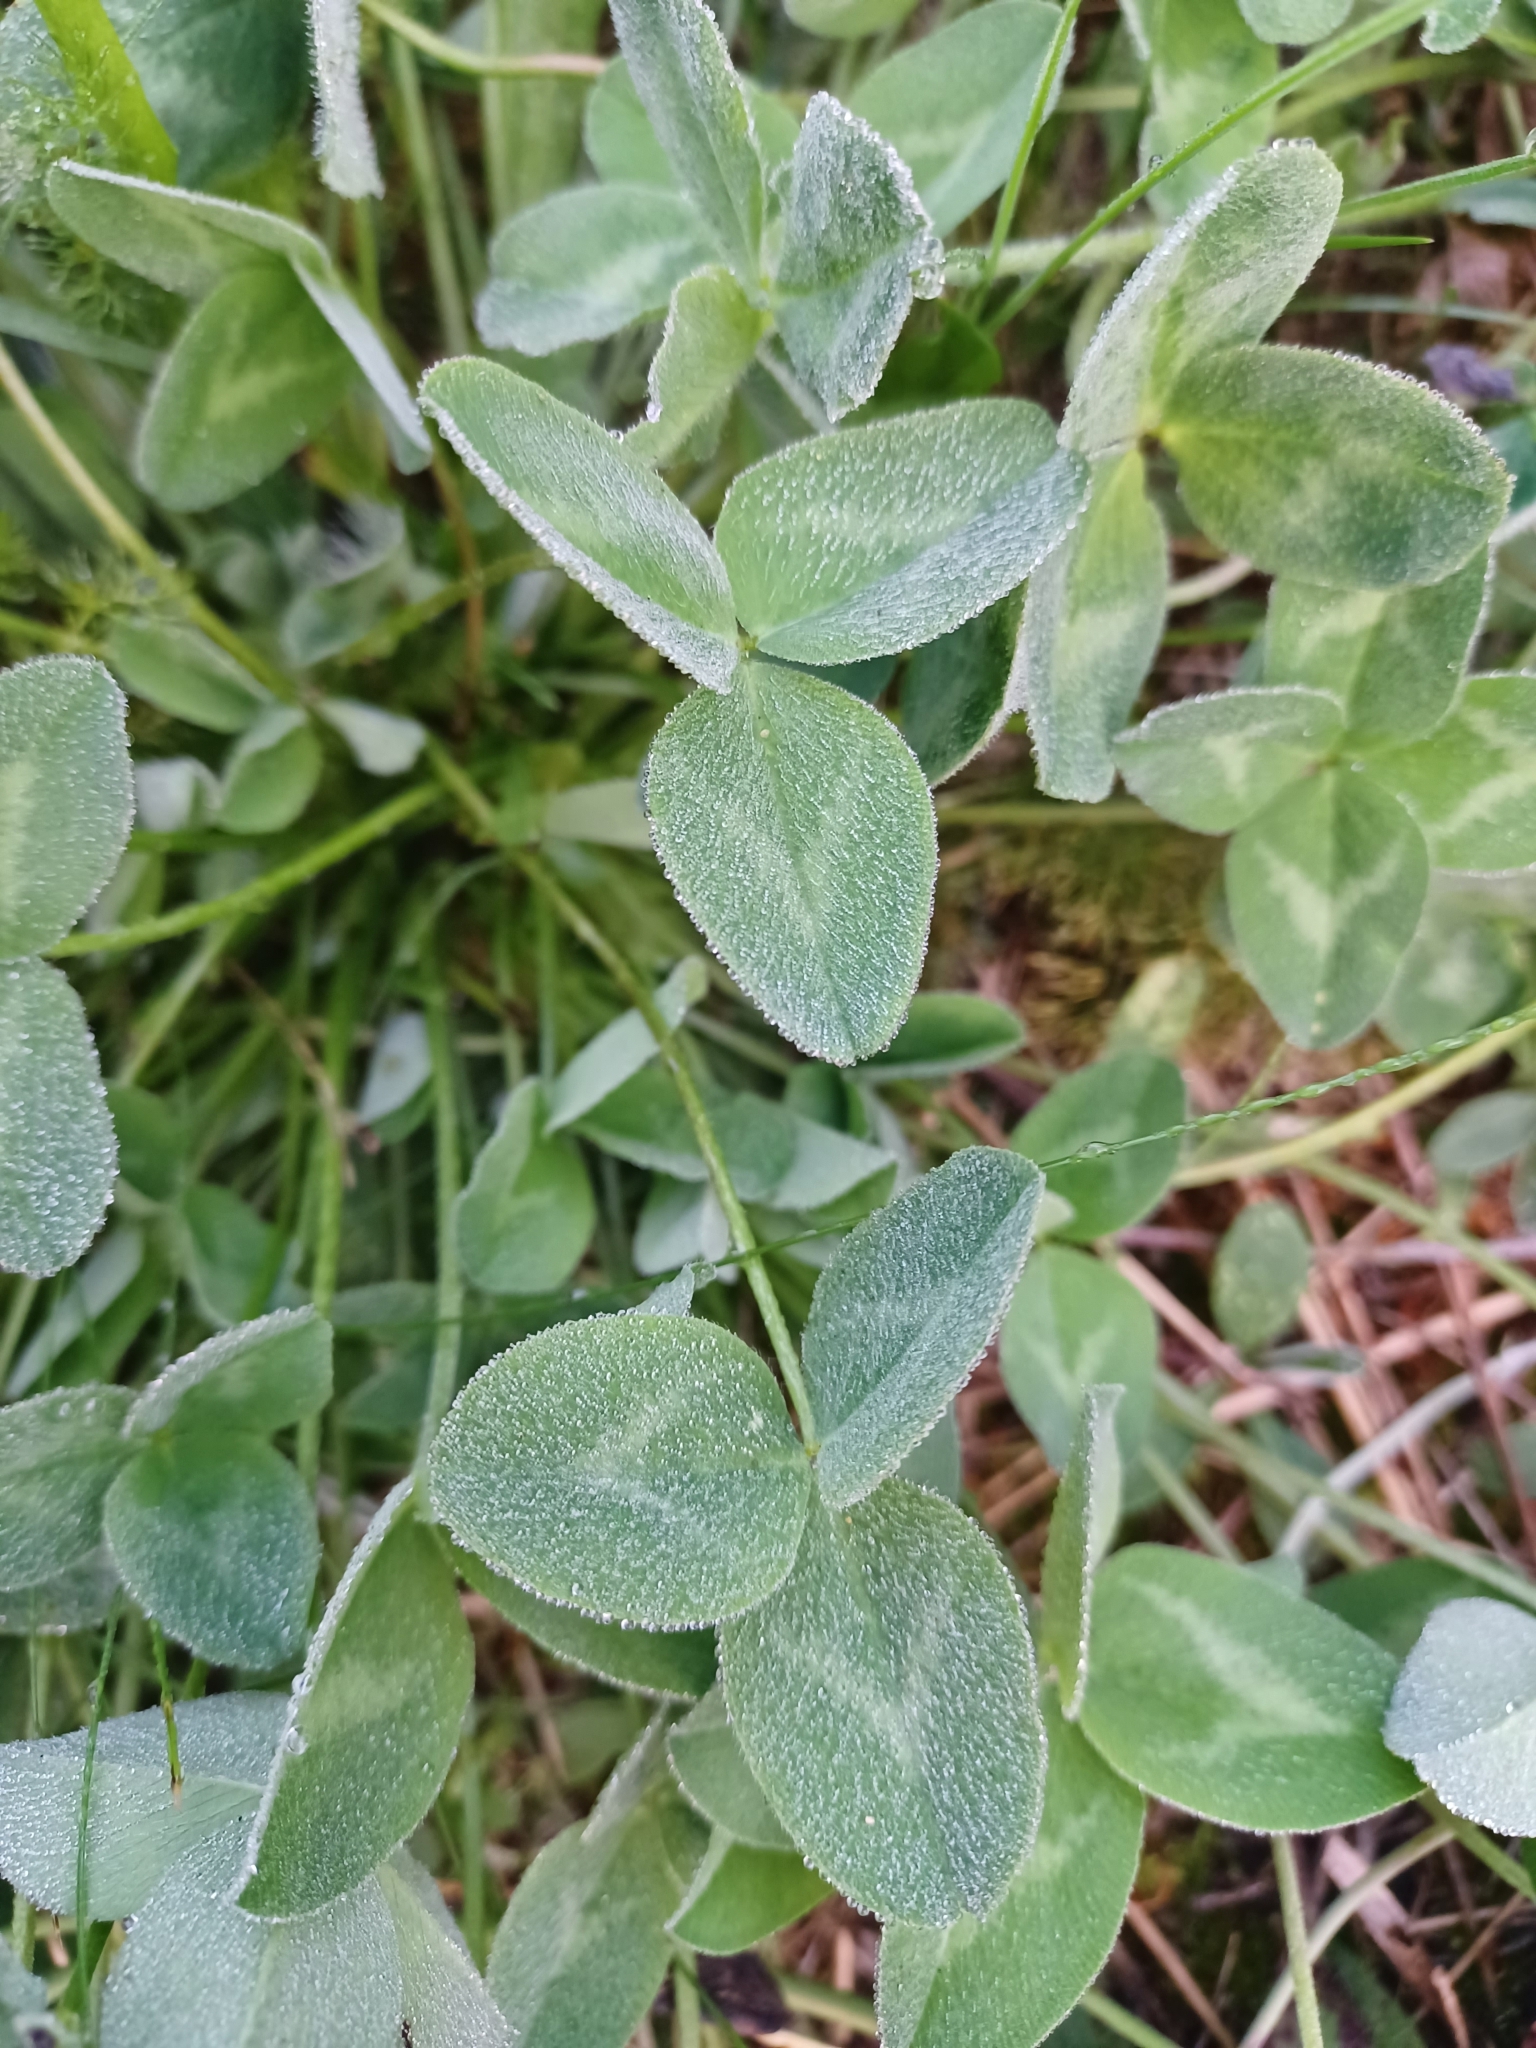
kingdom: Plantae
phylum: Tracheophyta
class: Magnoliopsida
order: Fabales
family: Fabaceae
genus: Trifolium
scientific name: Trifolium pratense
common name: Red clover
